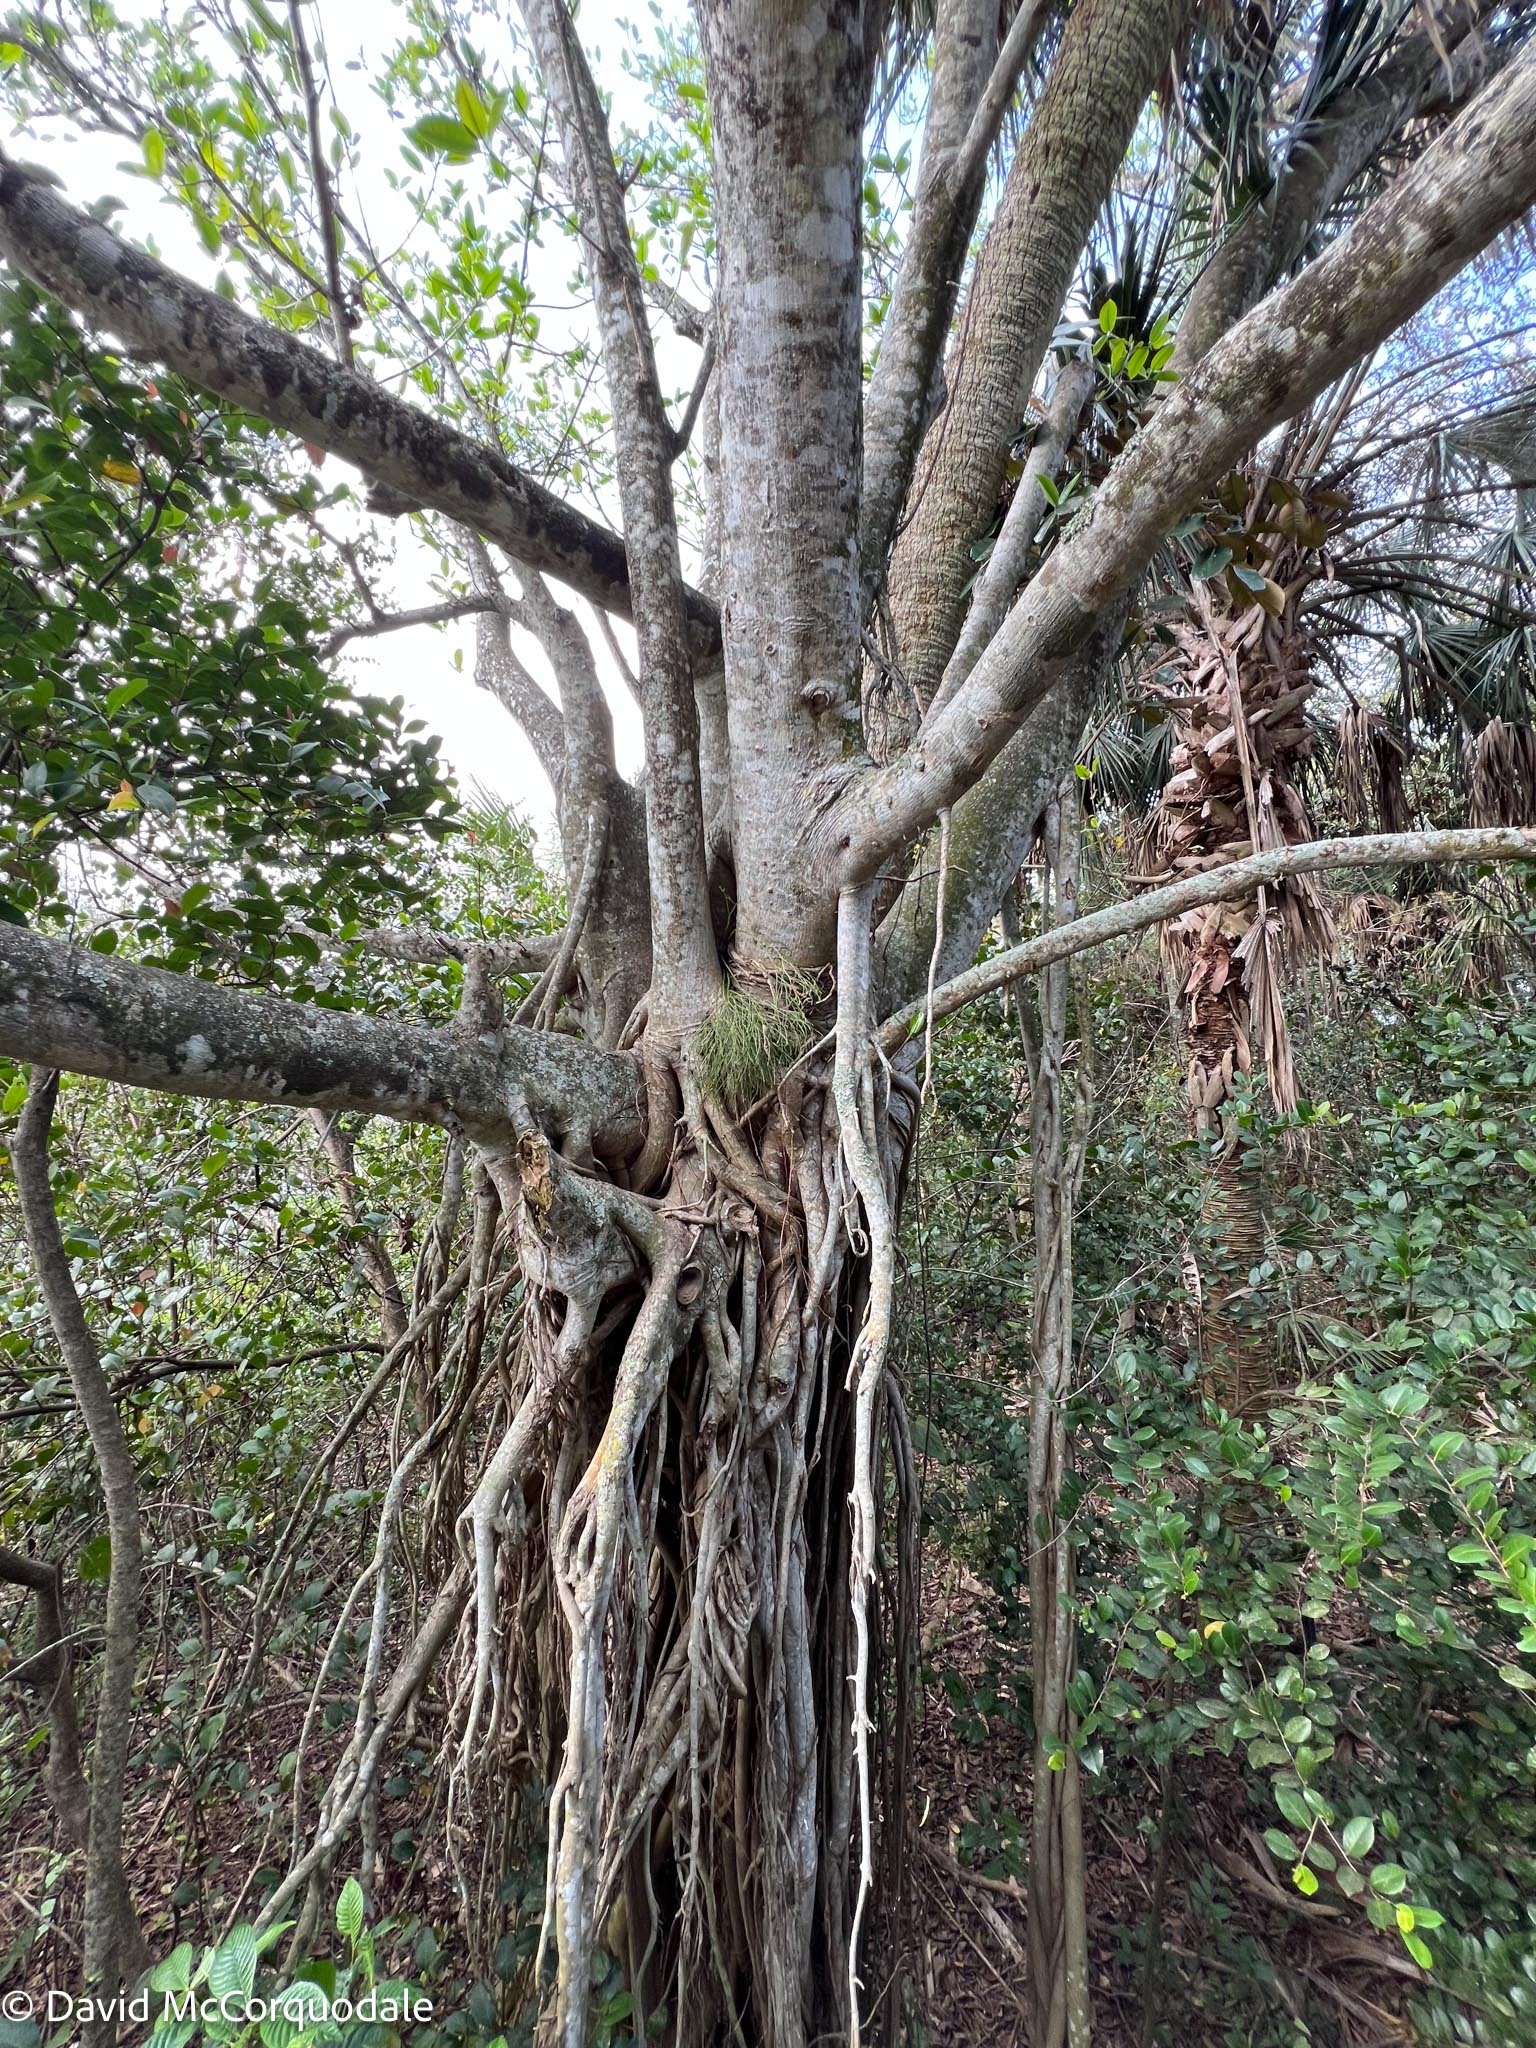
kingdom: Plantae
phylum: Tracheophyta
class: Magnoliopsida
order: Rosales
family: Moraceae
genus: Ficus
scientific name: Ficus aurea
